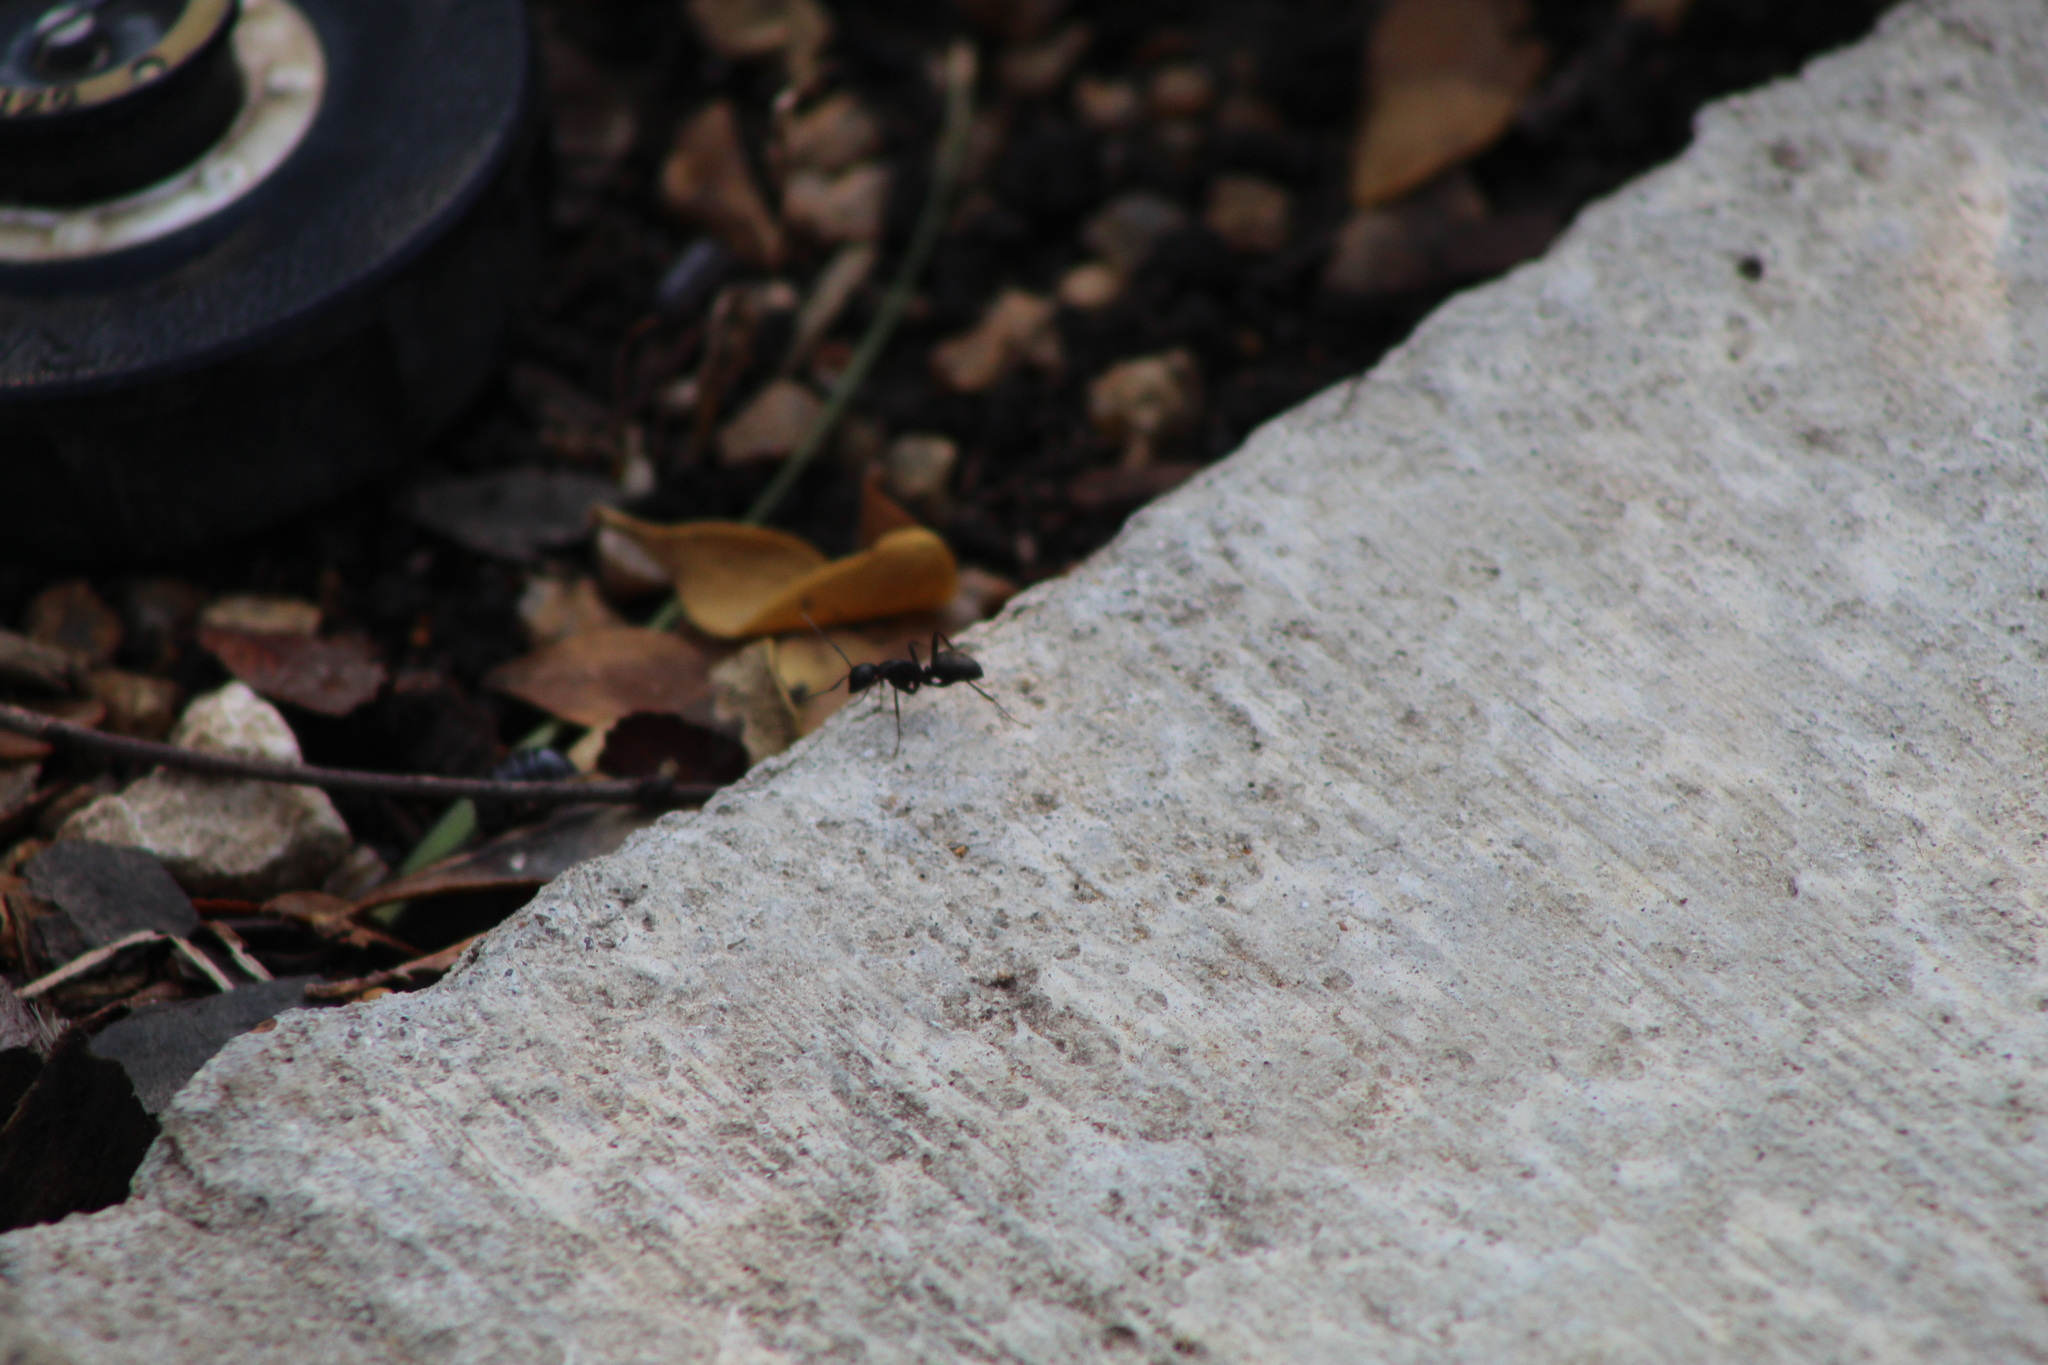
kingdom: Animalia
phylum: Arthropoda
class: Insecta
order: Hymenoptera
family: Formicidae
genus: Camponotus
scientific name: Camponotus pennsylvanicus
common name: Black carpenter ant
